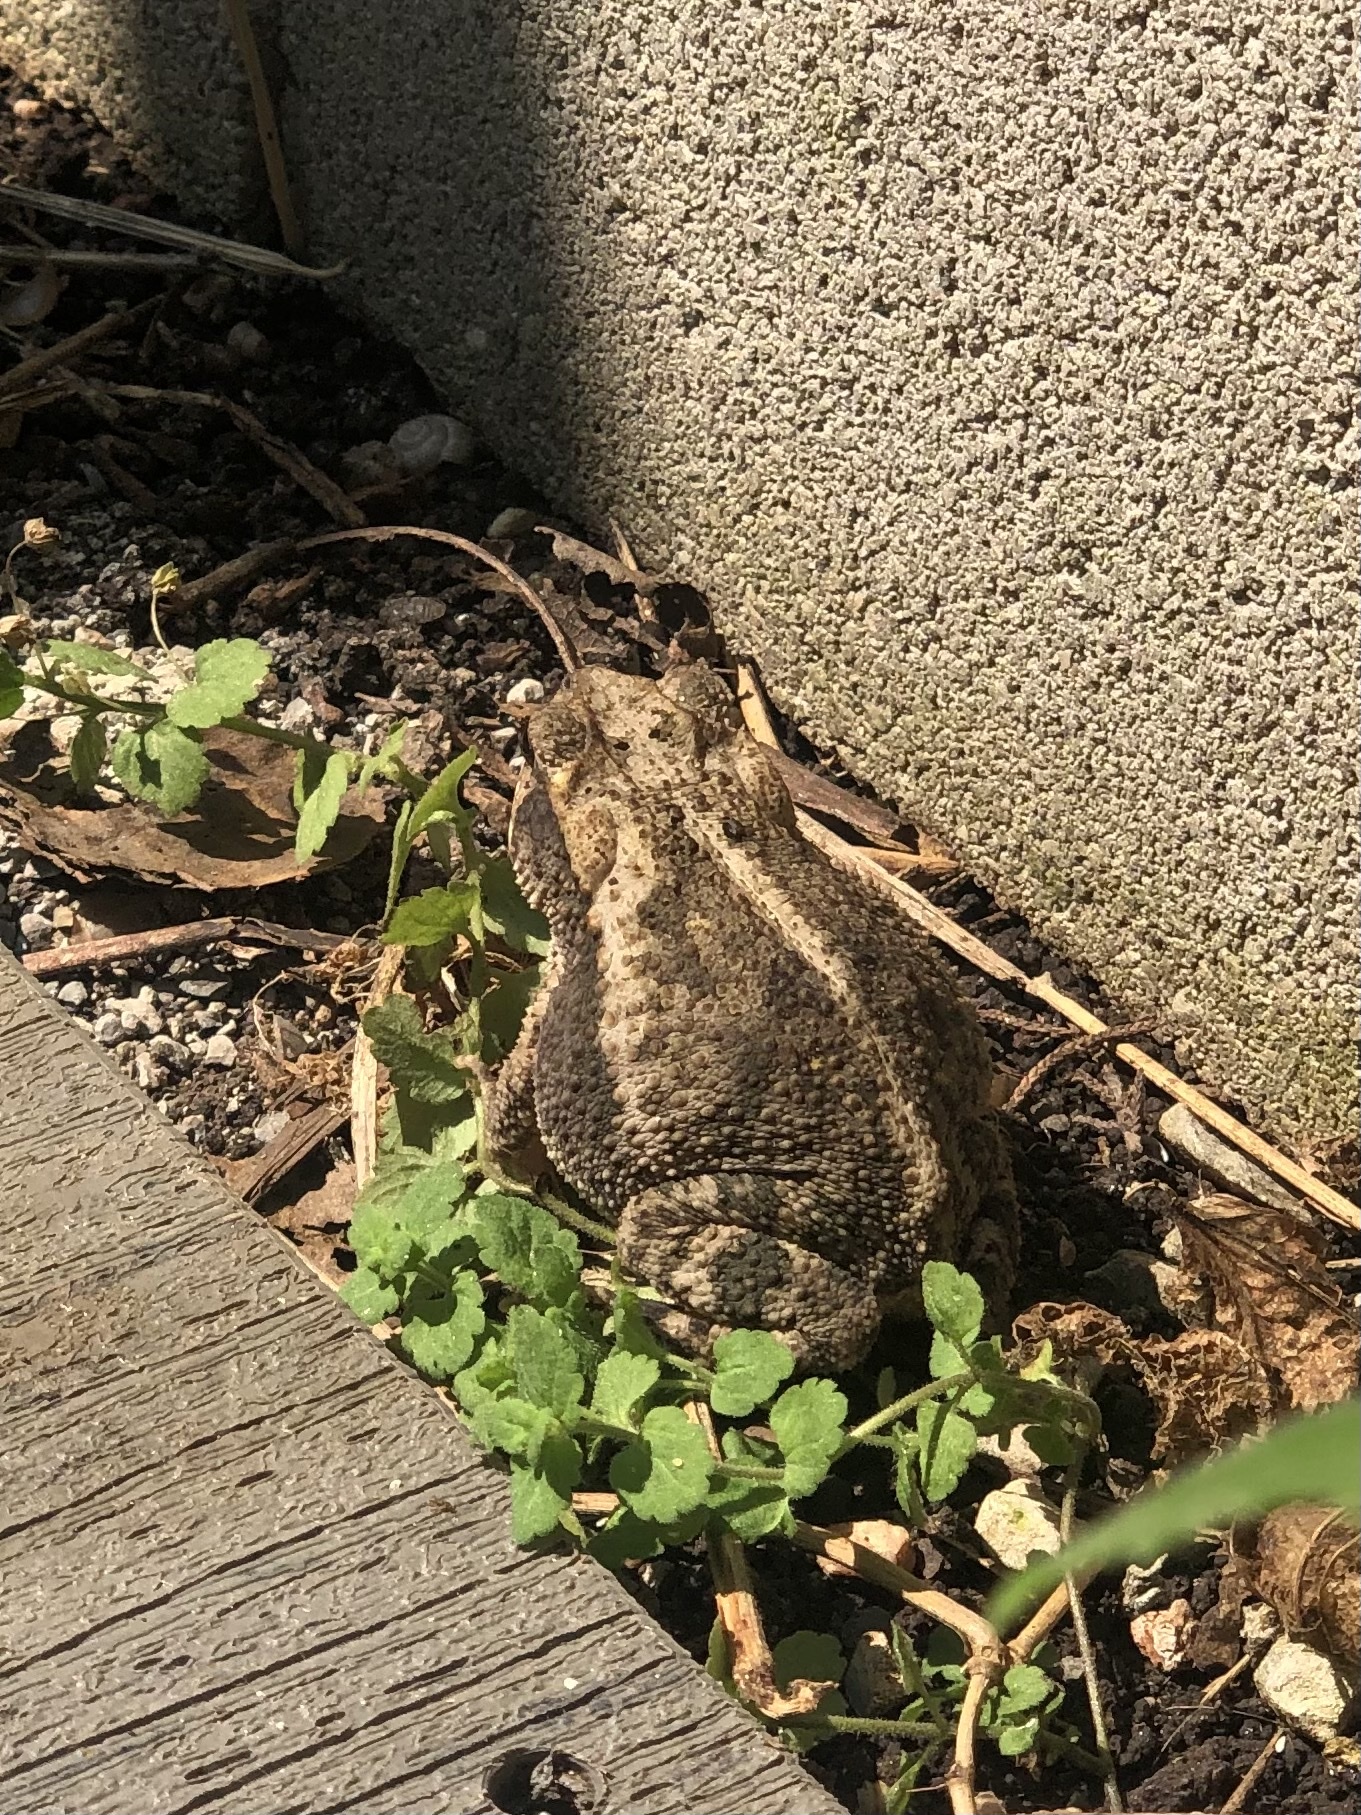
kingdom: Animalia
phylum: Chordata
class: Amphibia
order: Anura
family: Bufonidae
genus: Incilius
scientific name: Incilius nebulifer
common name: Gulf coast toad
